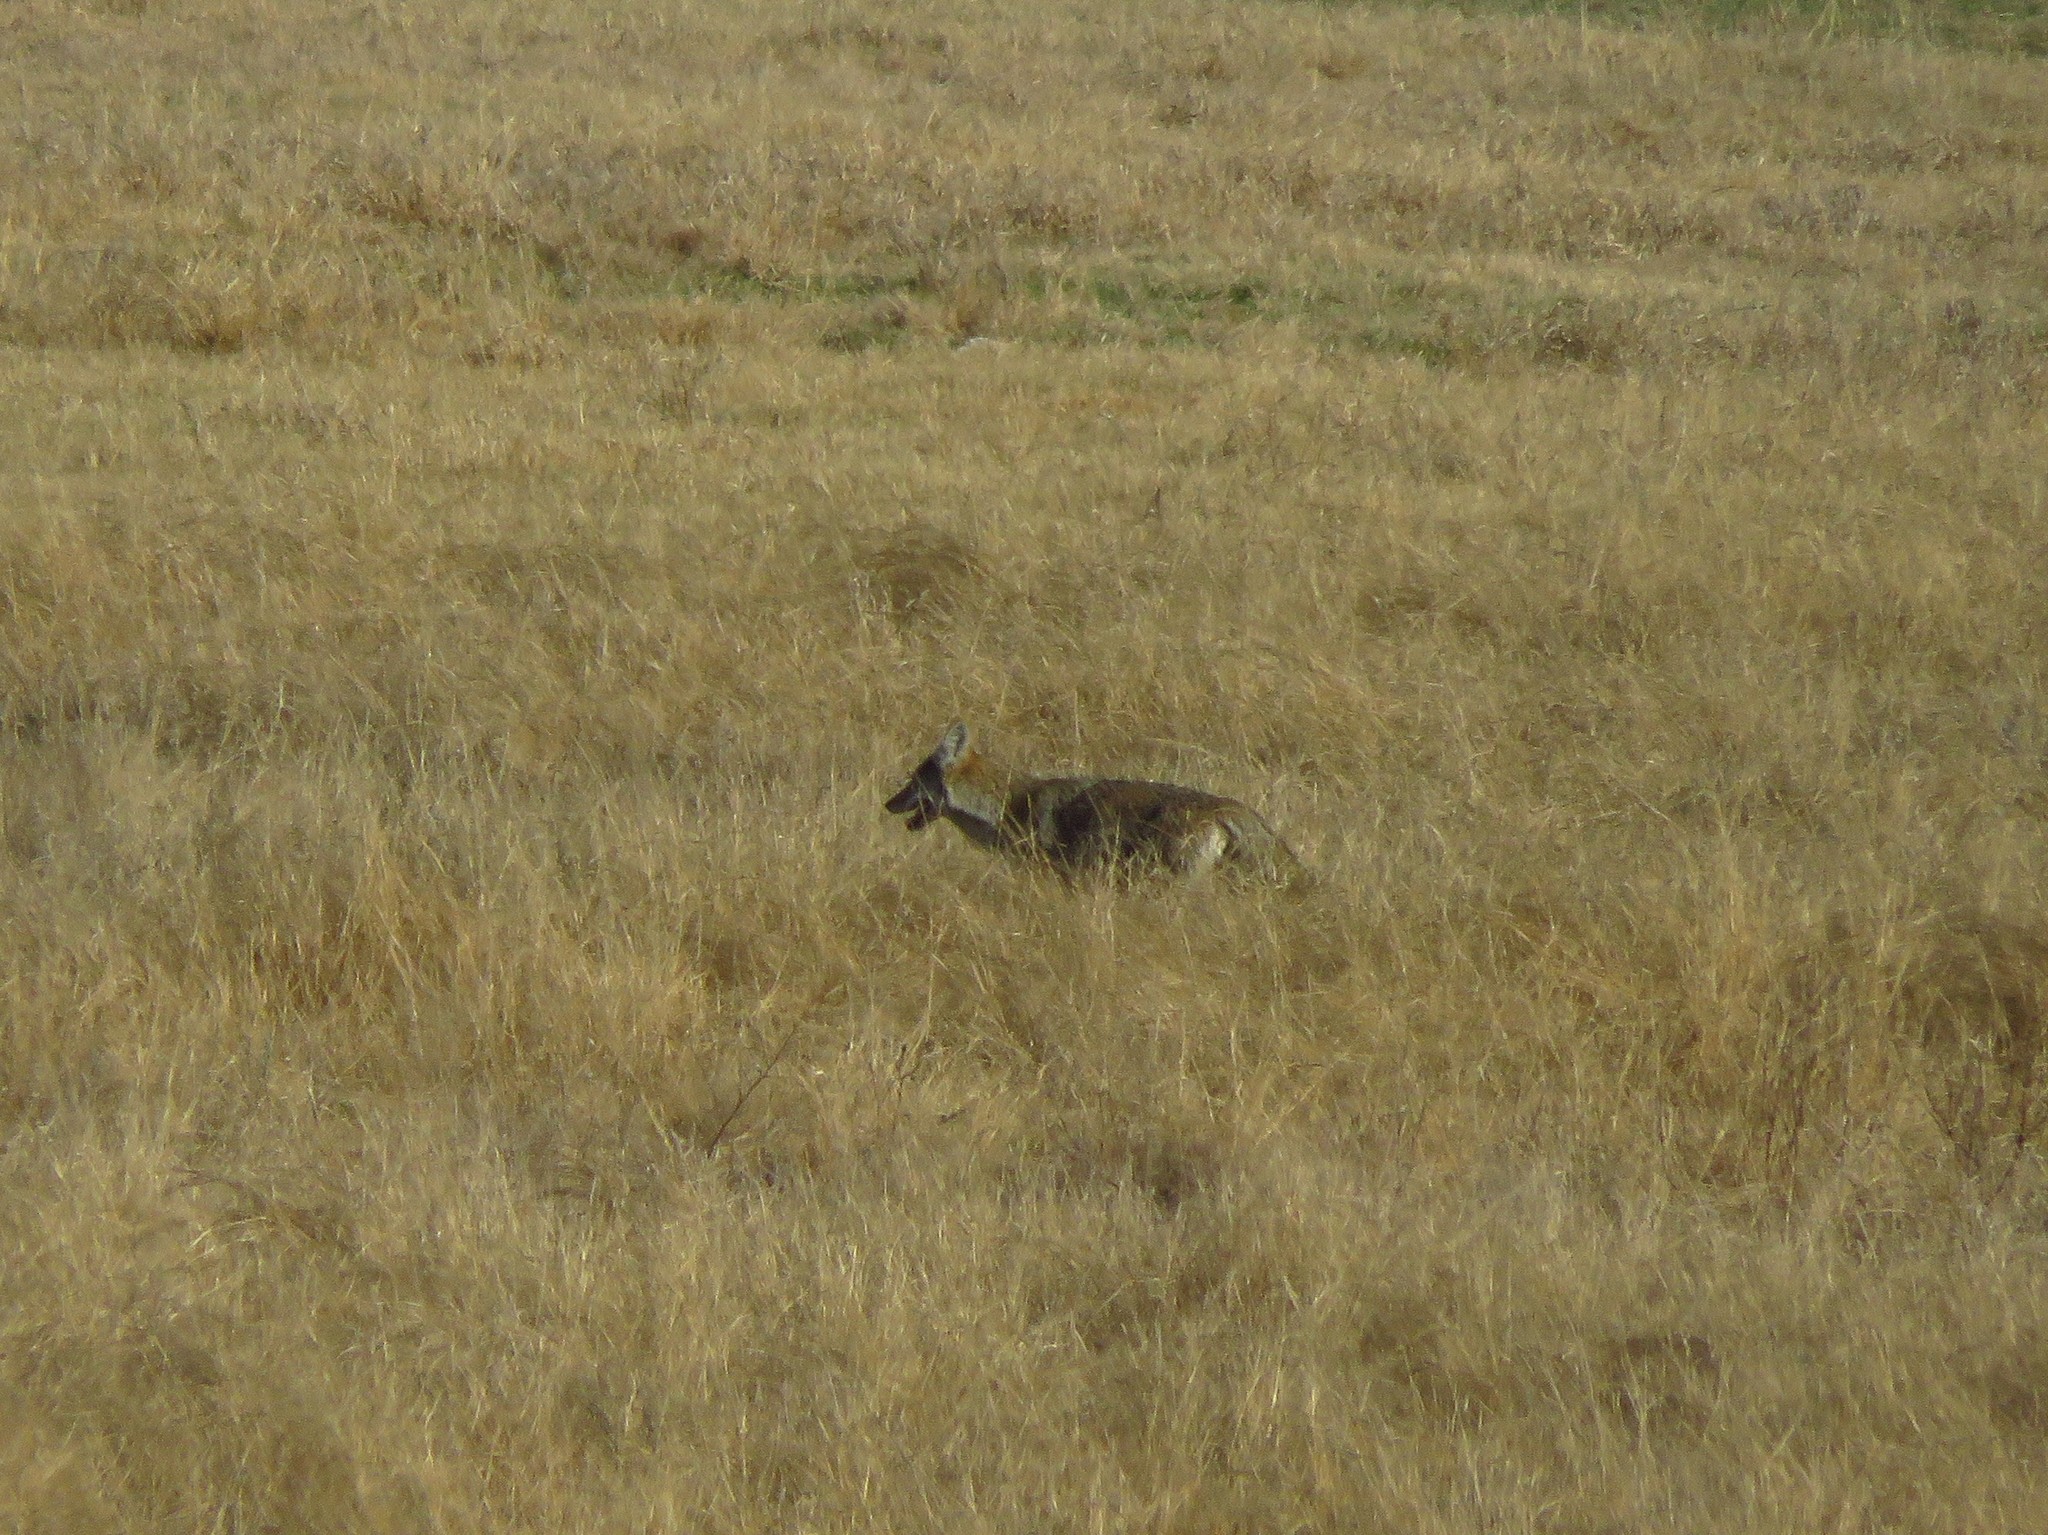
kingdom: Animalia
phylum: Chordata
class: Mammalia
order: Carnivora
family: Canidae
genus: Canis
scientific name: Canis latrans
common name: Coyote
